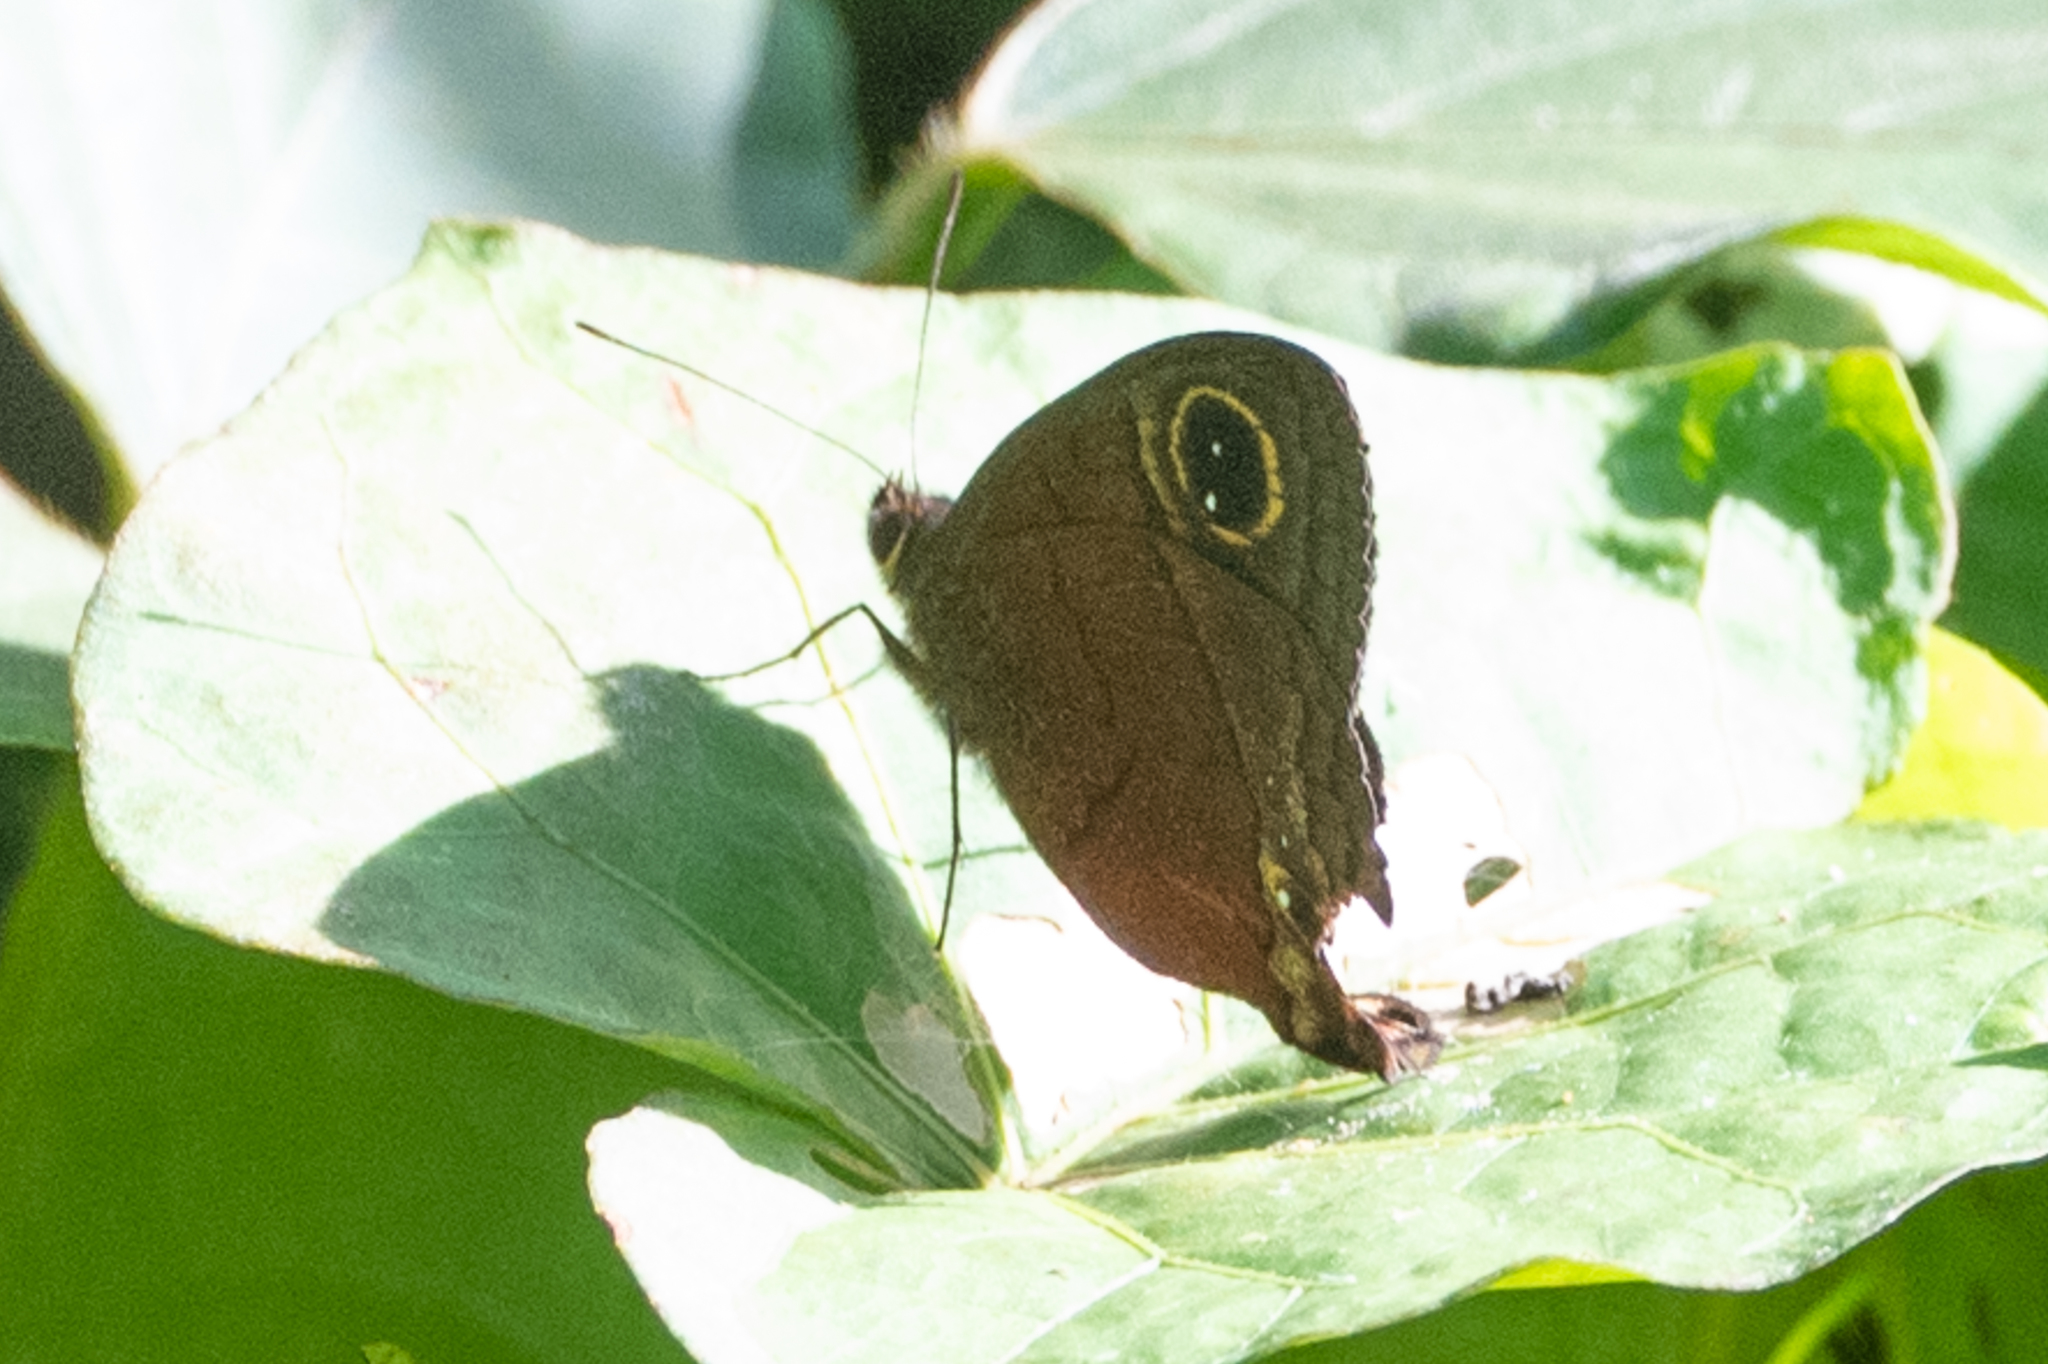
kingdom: Animalia
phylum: Arthropoda
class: Insecta
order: Lepidoptera
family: Nymphalidae
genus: Calisto
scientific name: Calisto nubila
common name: Puerto rican calisto
